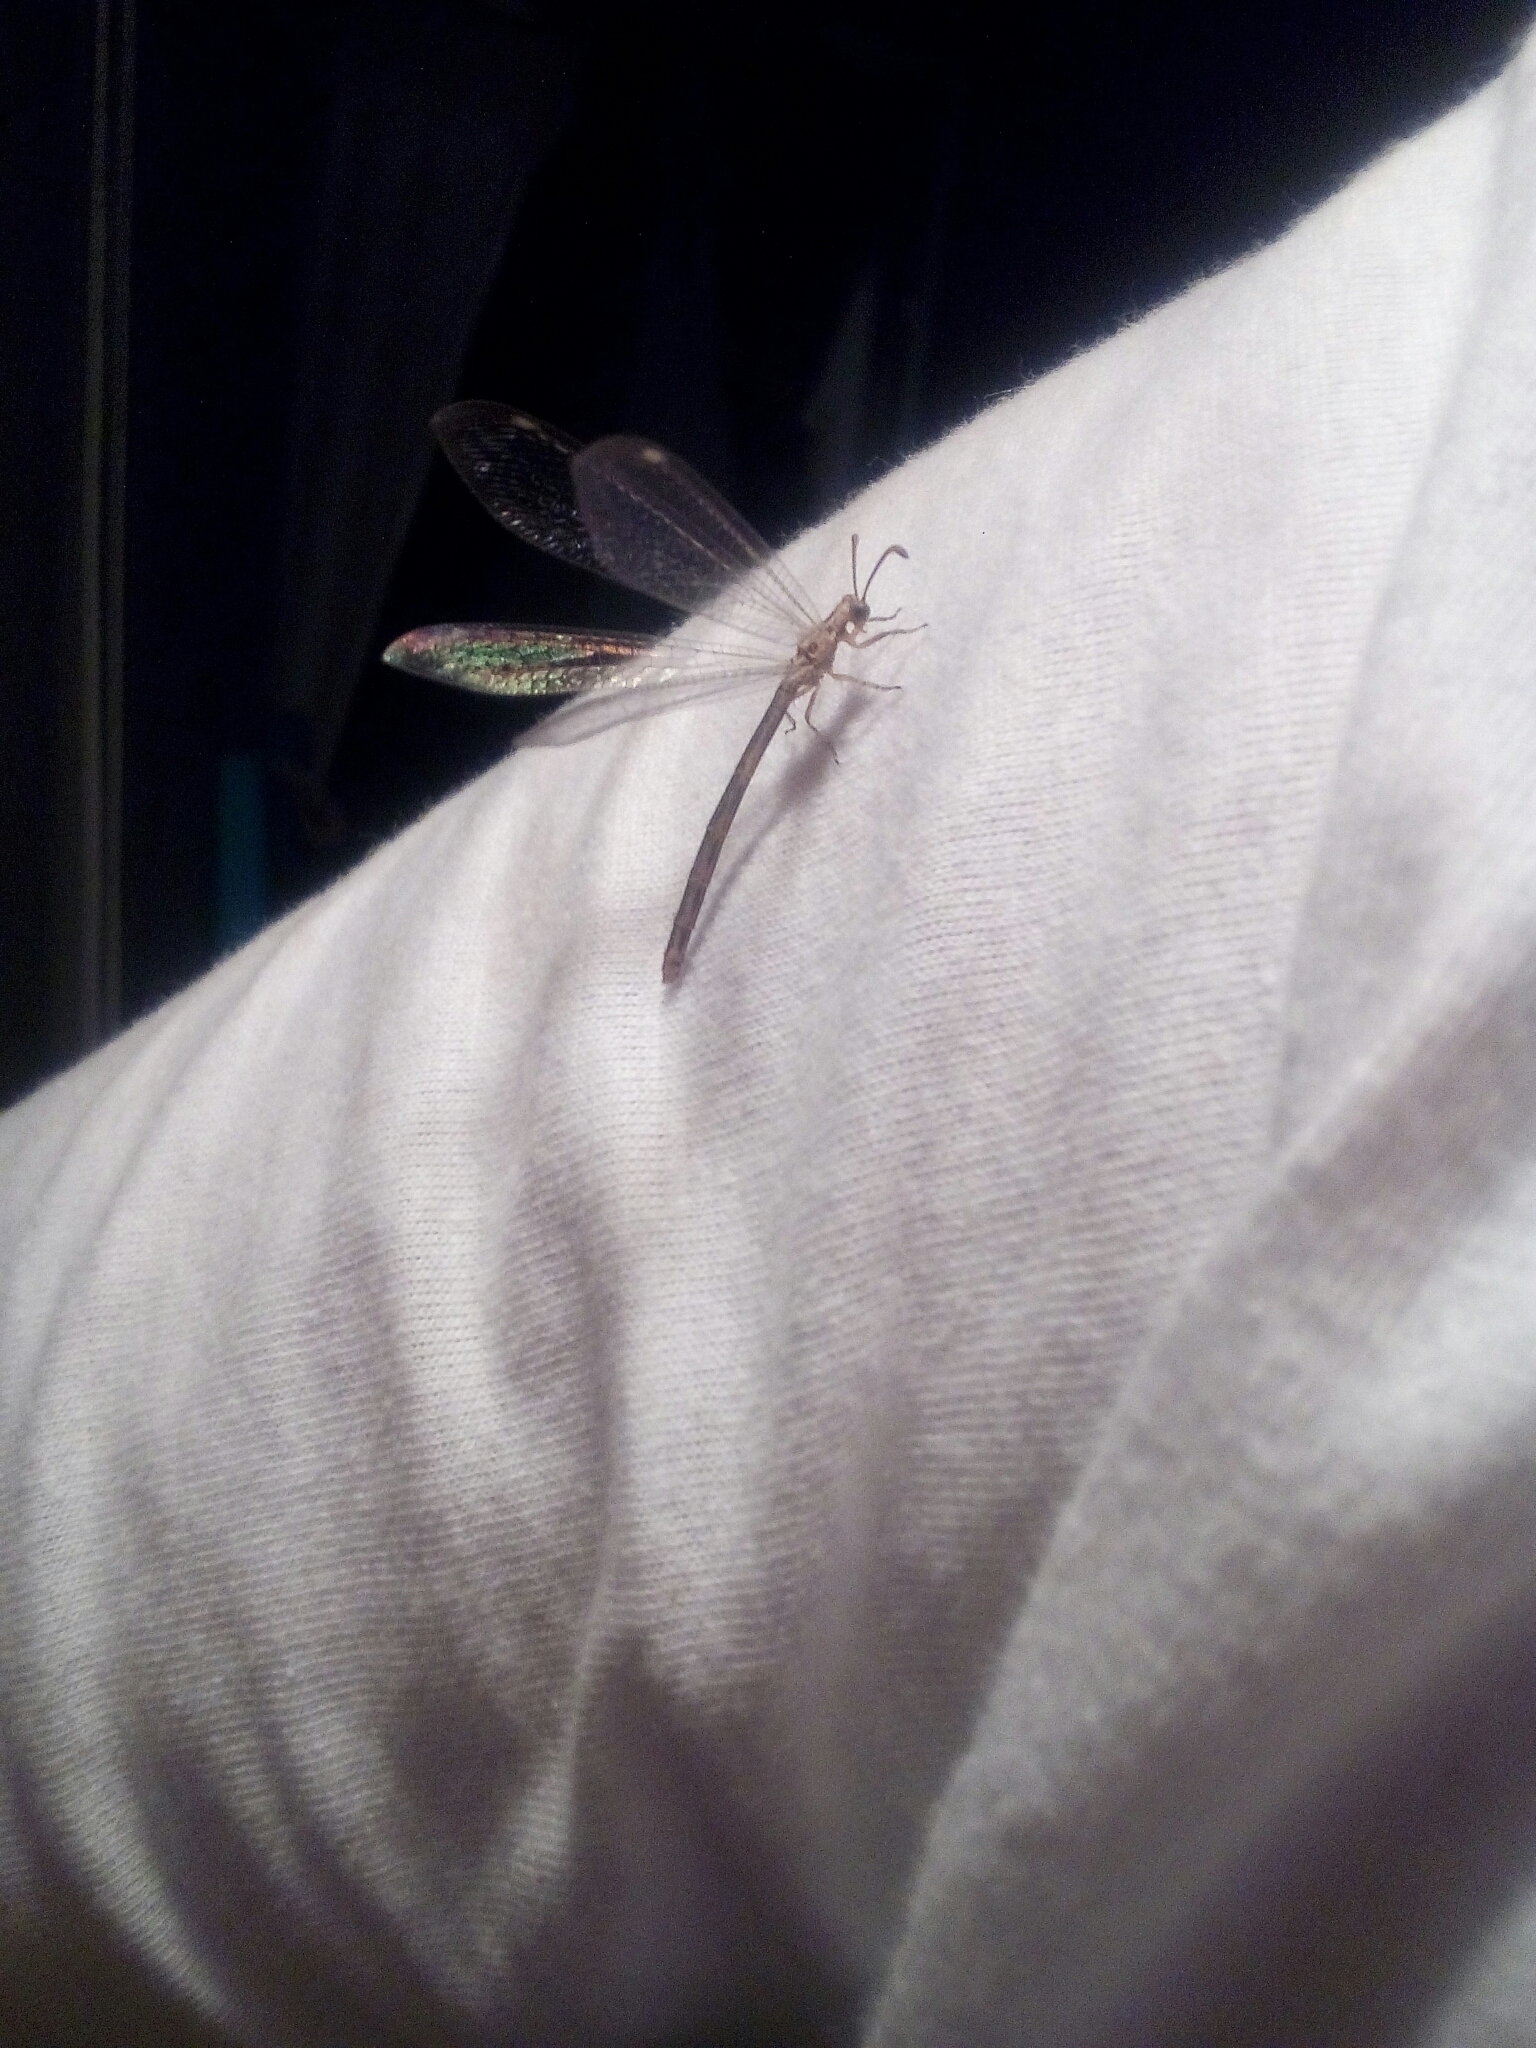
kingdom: Animalia
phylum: Arthropoda
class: Insecta
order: Neuroptera
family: Myrmeleontidae
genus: Macronemurus
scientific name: Macronemurus appendiculatus
